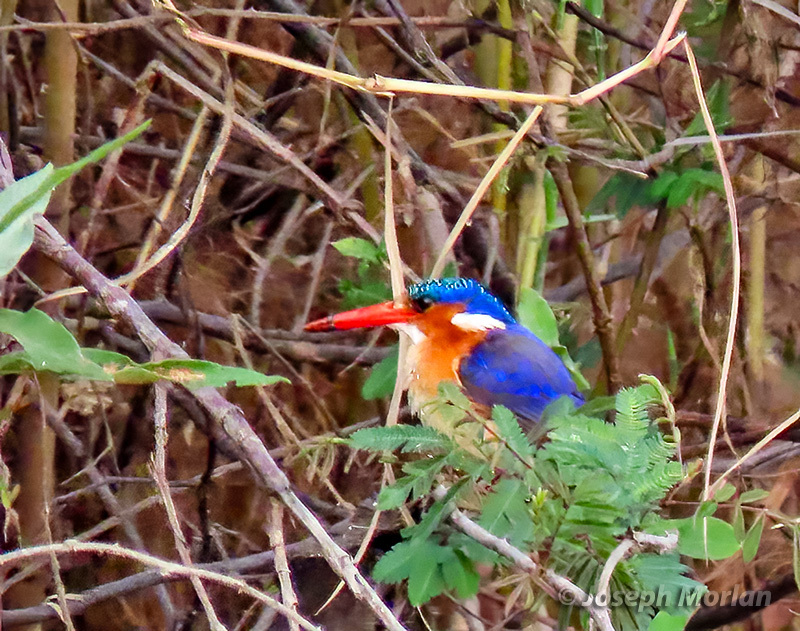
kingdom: Animalia
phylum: Chordata
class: Aves
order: Coraciiformes
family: Alcedinidae
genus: Corythornis
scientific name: Corythornis cristatus
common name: Malachite kingfisher
